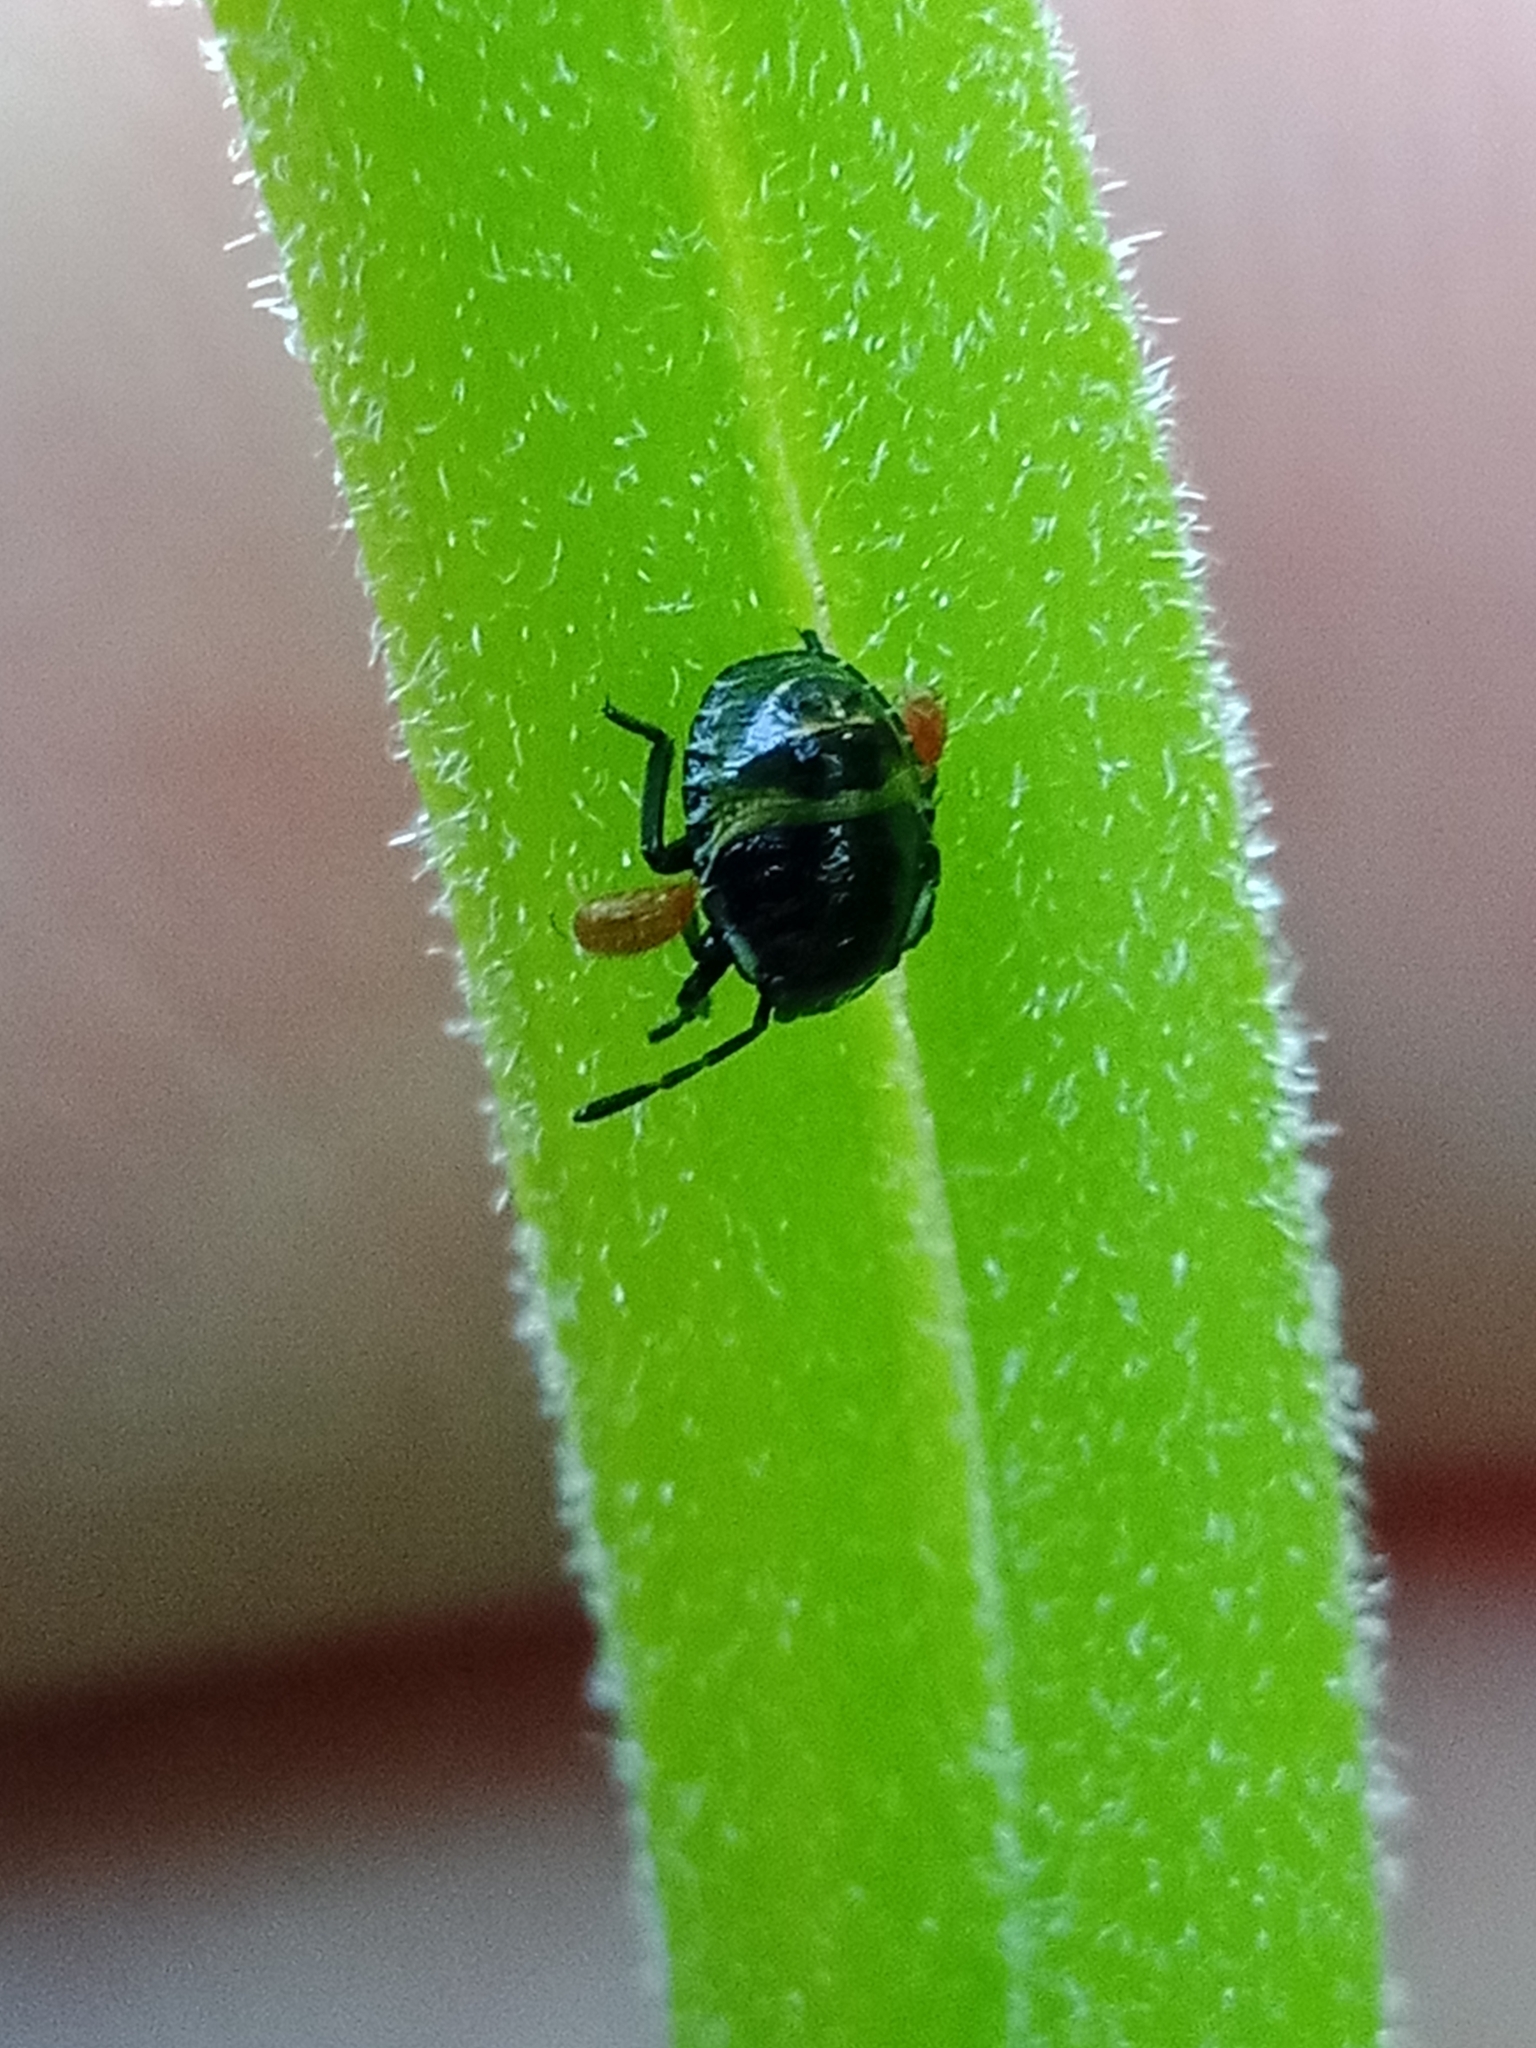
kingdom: Animalia
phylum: Arthropoda
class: Insecta
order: Hemiptera
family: Pentatomidae
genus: Palomena
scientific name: Palomena prasina
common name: Green shieldbug
